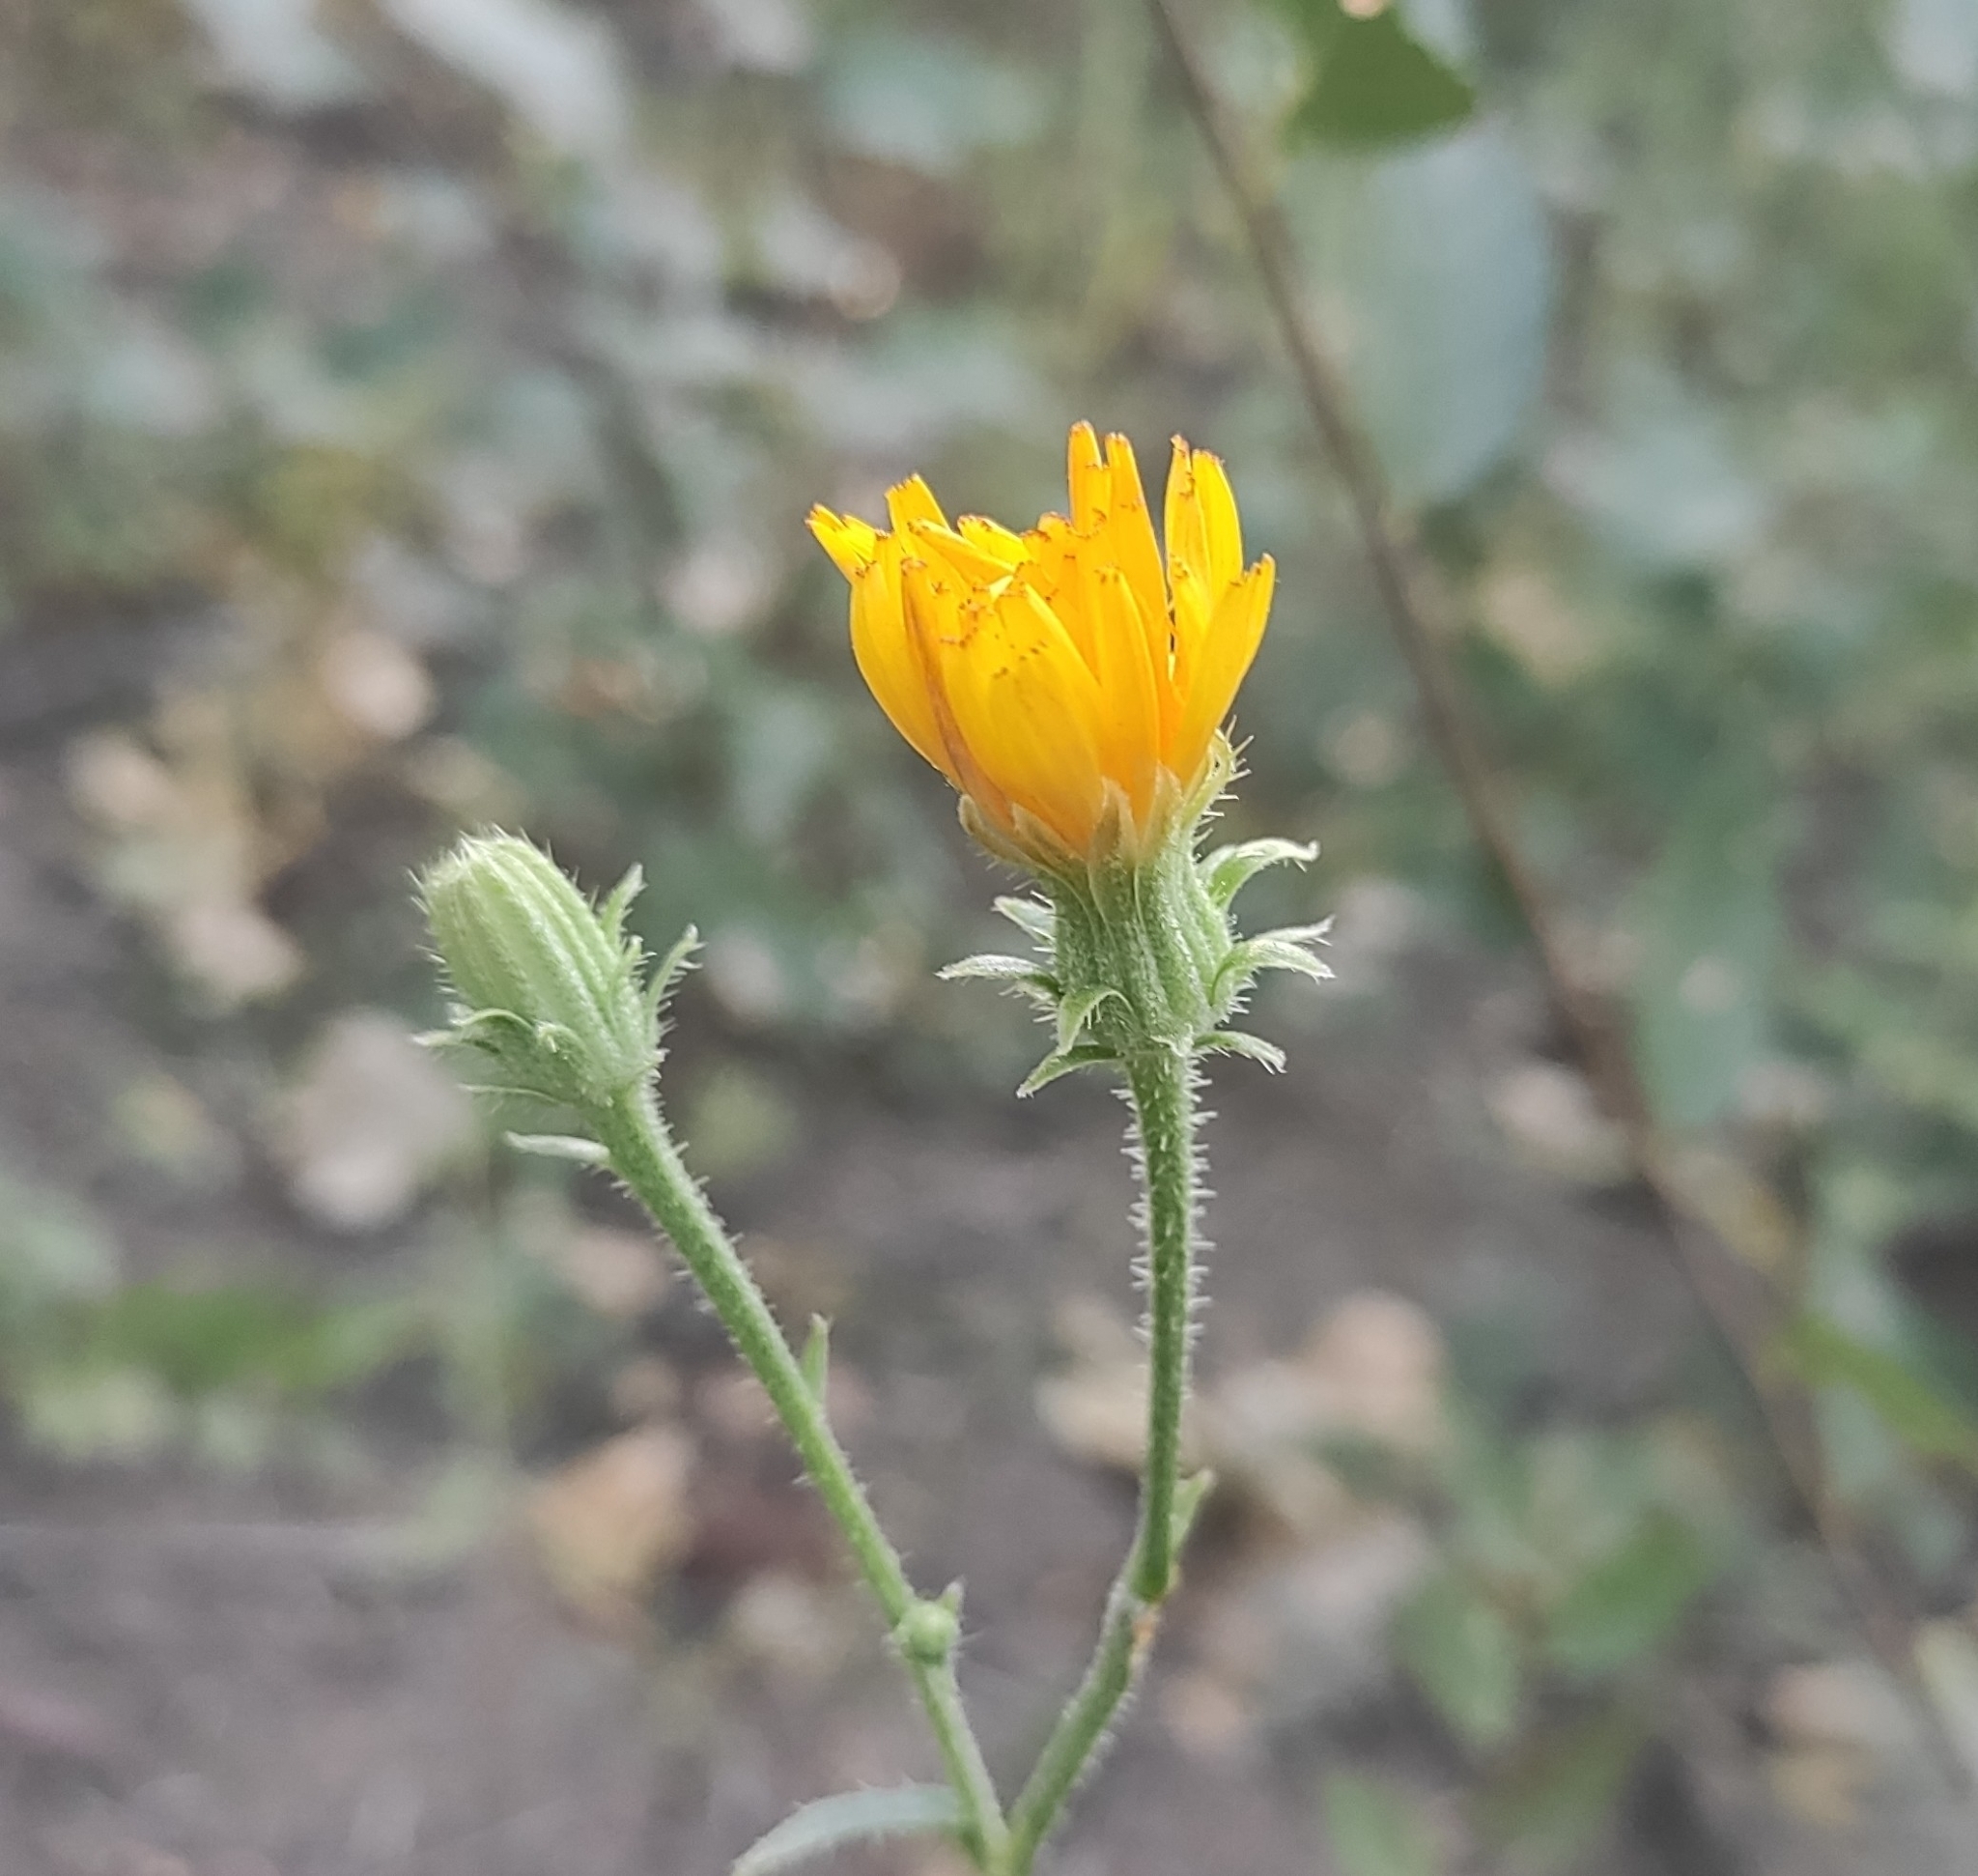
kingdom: Plantae
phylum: Tracheophyta
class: Magnoliopsida
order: Asterales
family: Asteraceae
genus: Picris
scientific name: Picris hieracioides
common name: Hawkweed oxtongue
